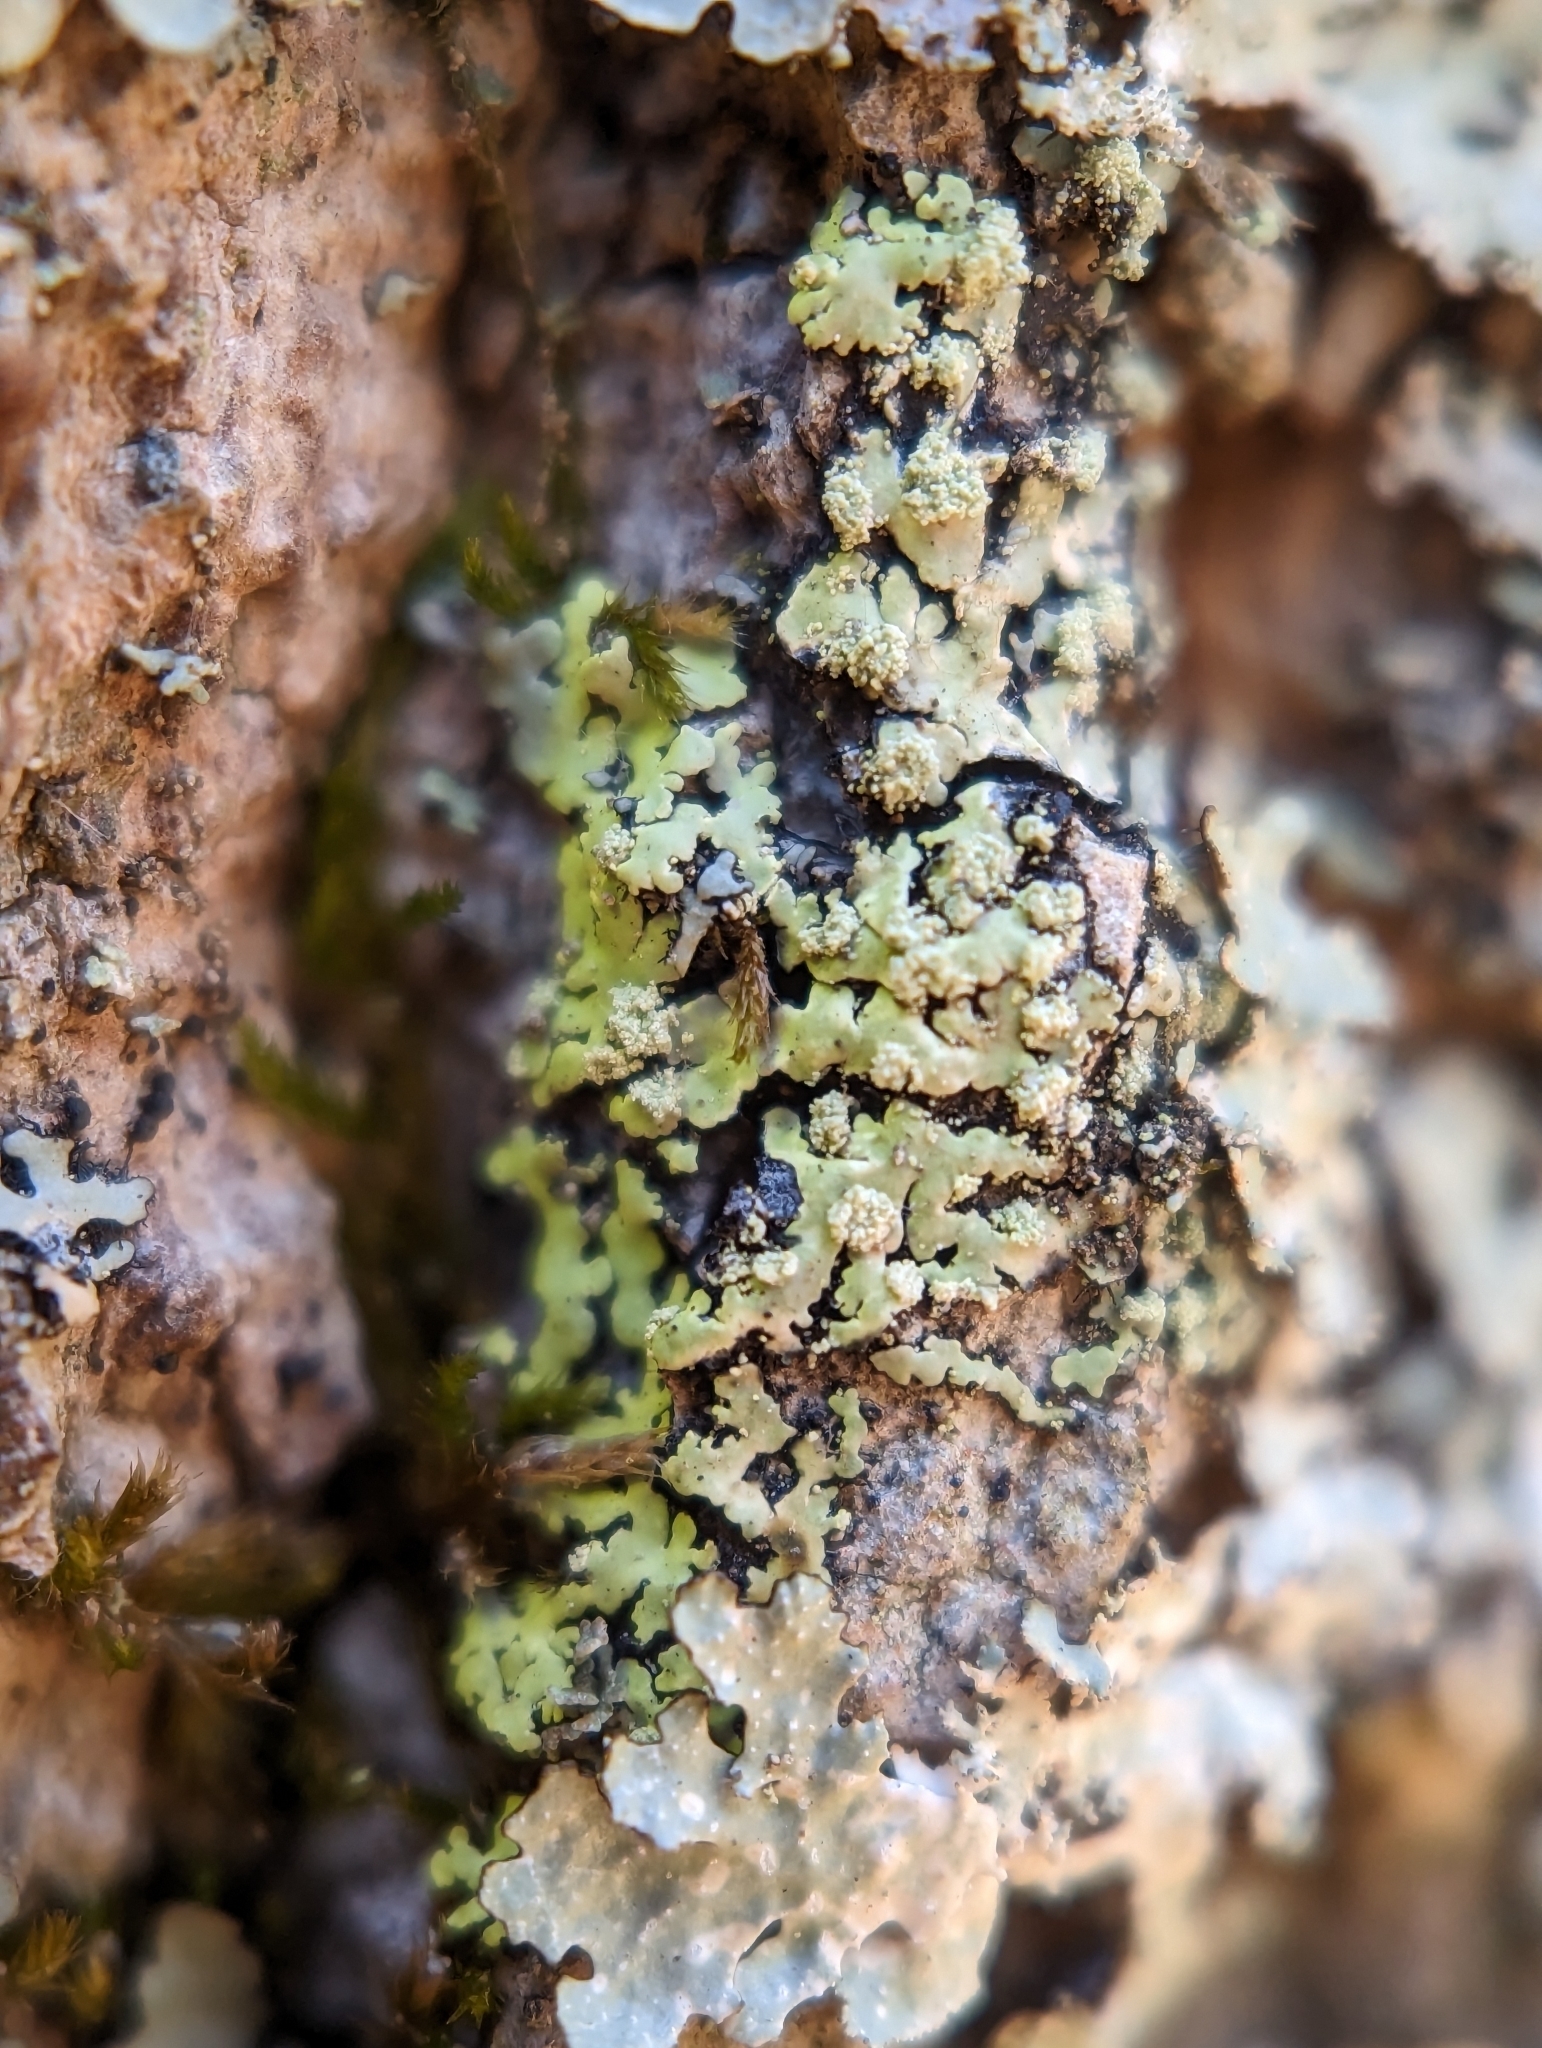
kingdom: Fungi
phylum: Ascomycota
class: Lecanoromycetes
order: Caliciales
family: Caliciaceae
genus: Pyxine
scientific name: Pyxine subcinerea
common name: Mustard lichen
